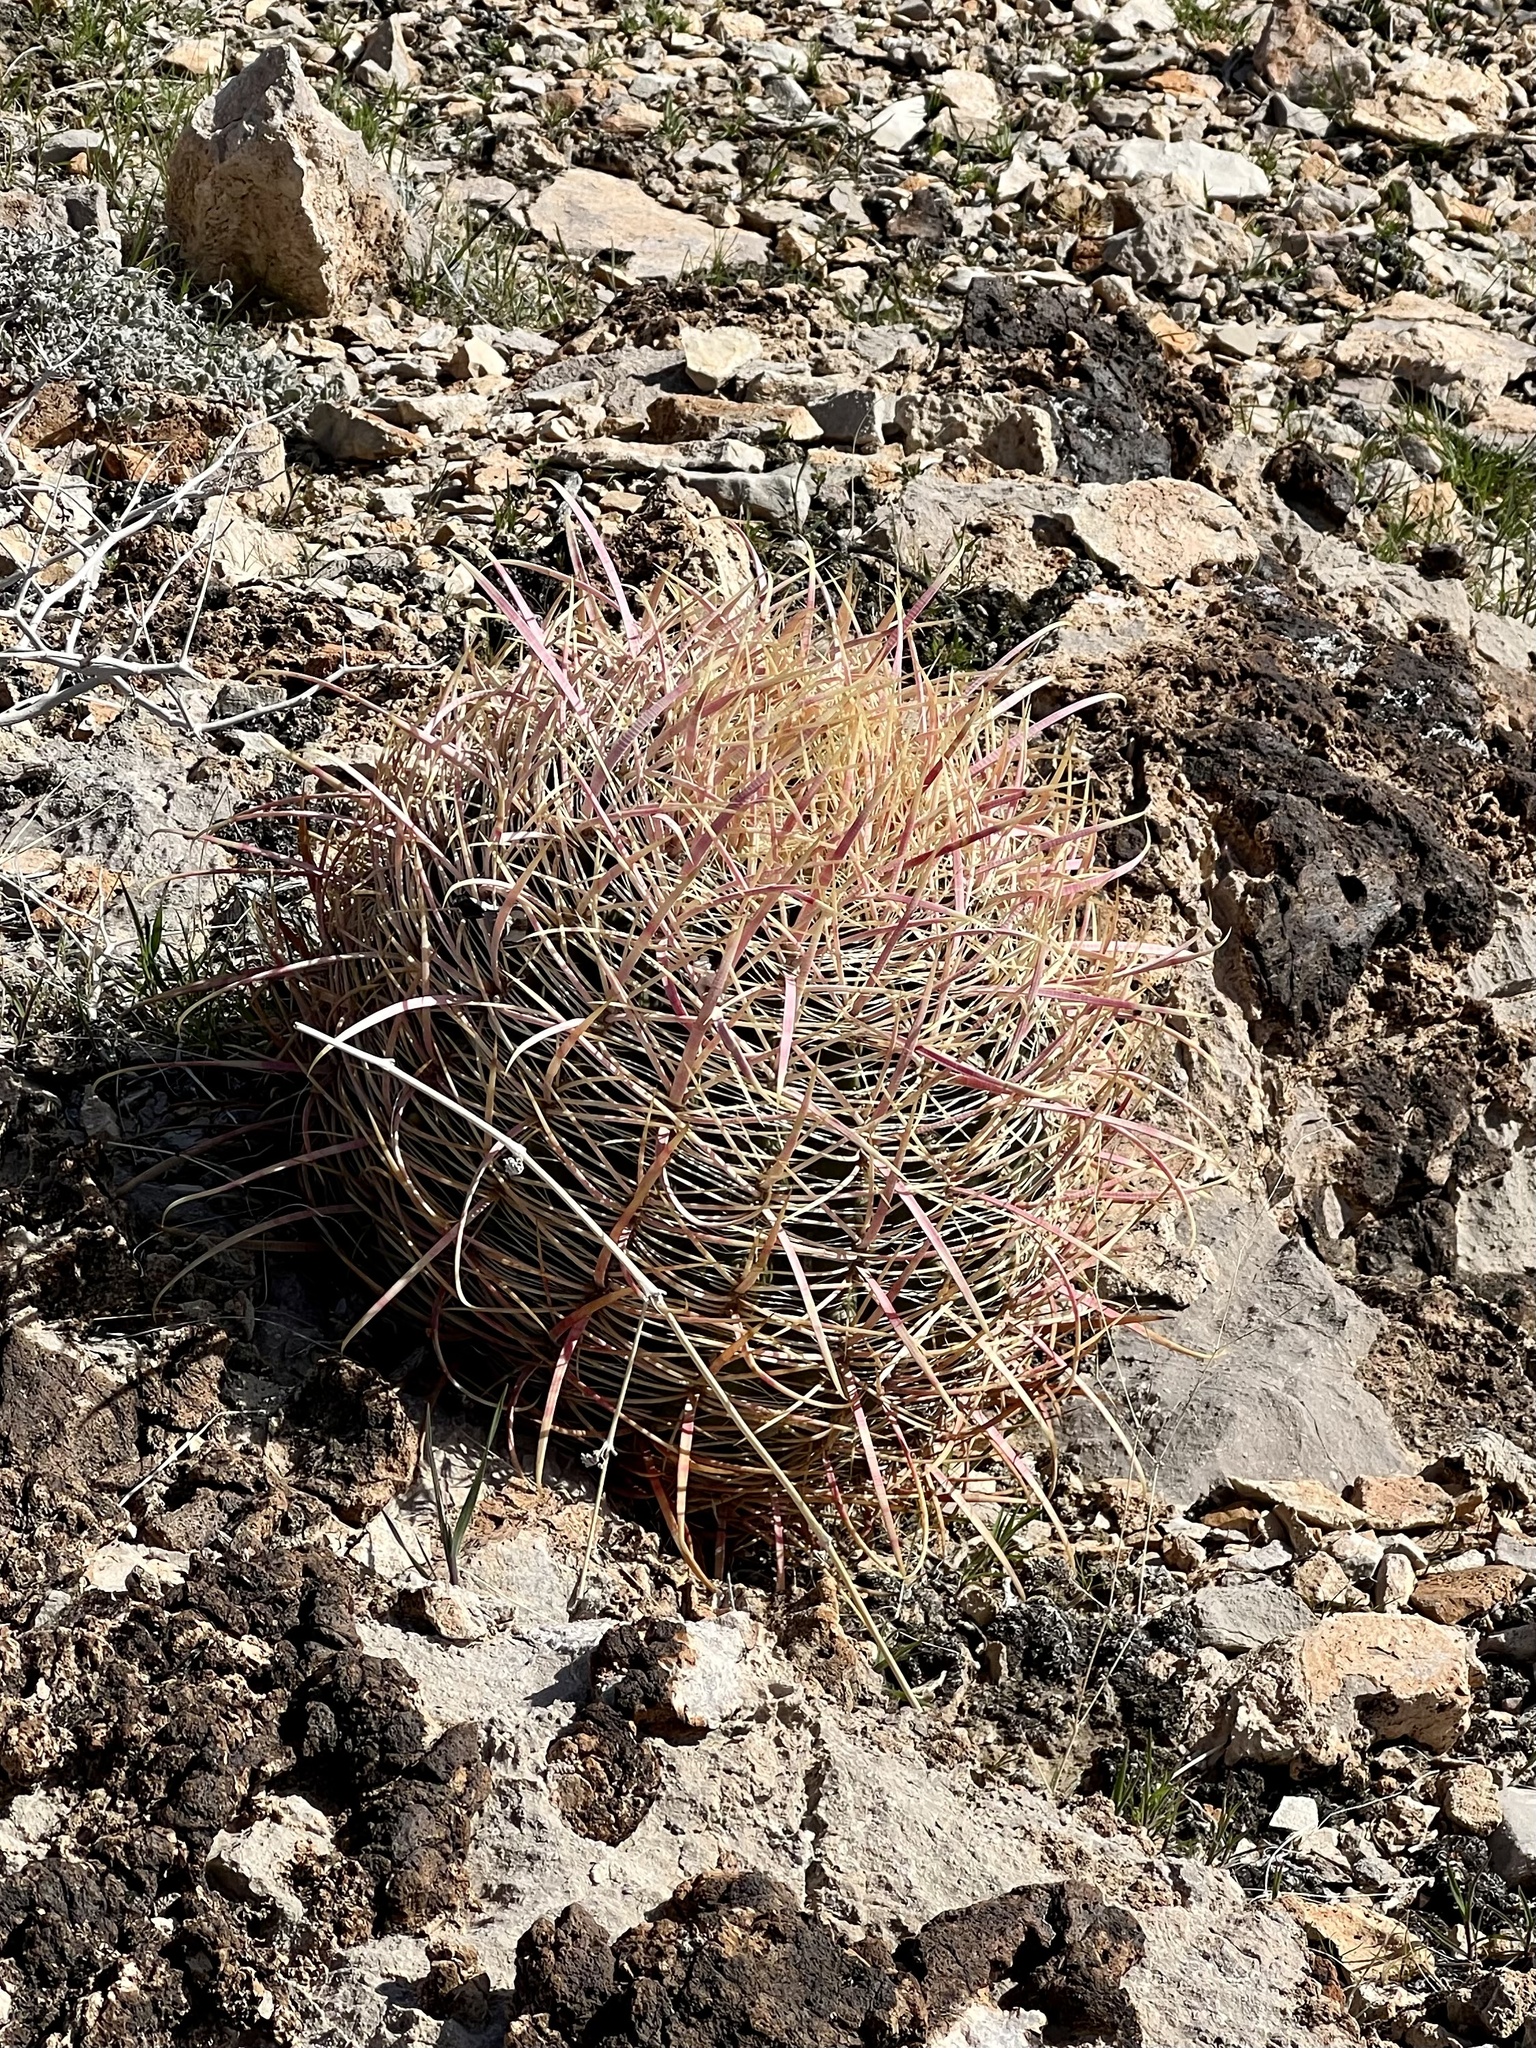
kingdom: Plantae
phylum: Tracheophyta
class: Magnoliopsida
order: Caryophyllales
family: Cactaceae
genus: Ferocactus
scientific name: Ferocactus cylindraceus
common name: California barrel cactus
